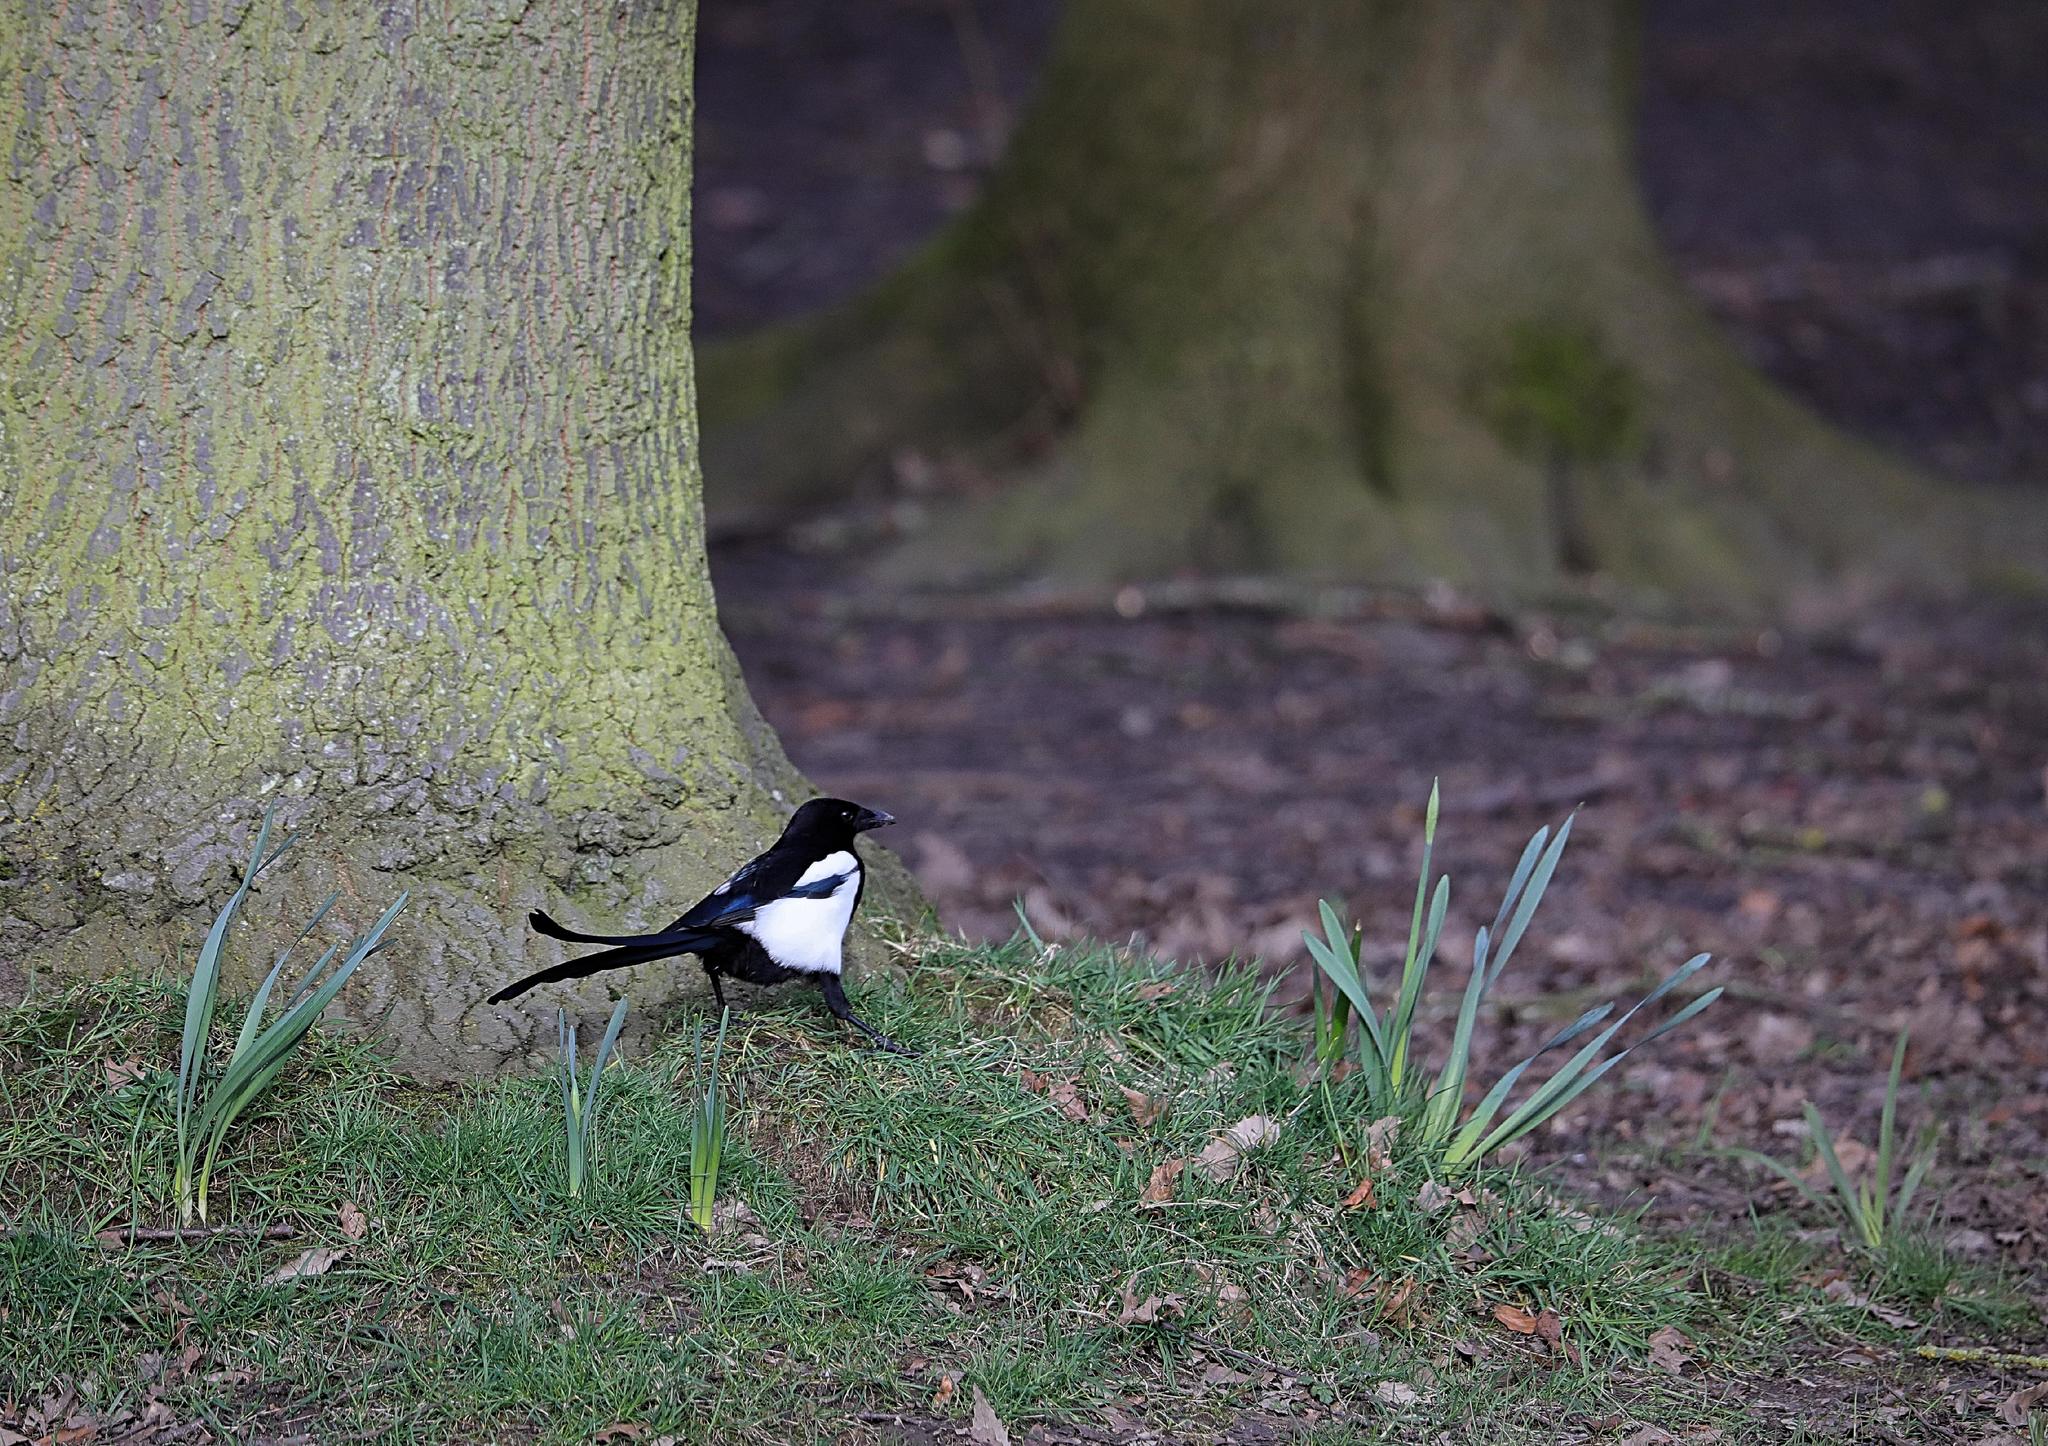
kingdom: Animalia
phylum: Chordata
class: Aves
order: Passeriformes
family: Corvidae
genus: Pica
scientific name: Pica pica
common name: Eurasian magpie
